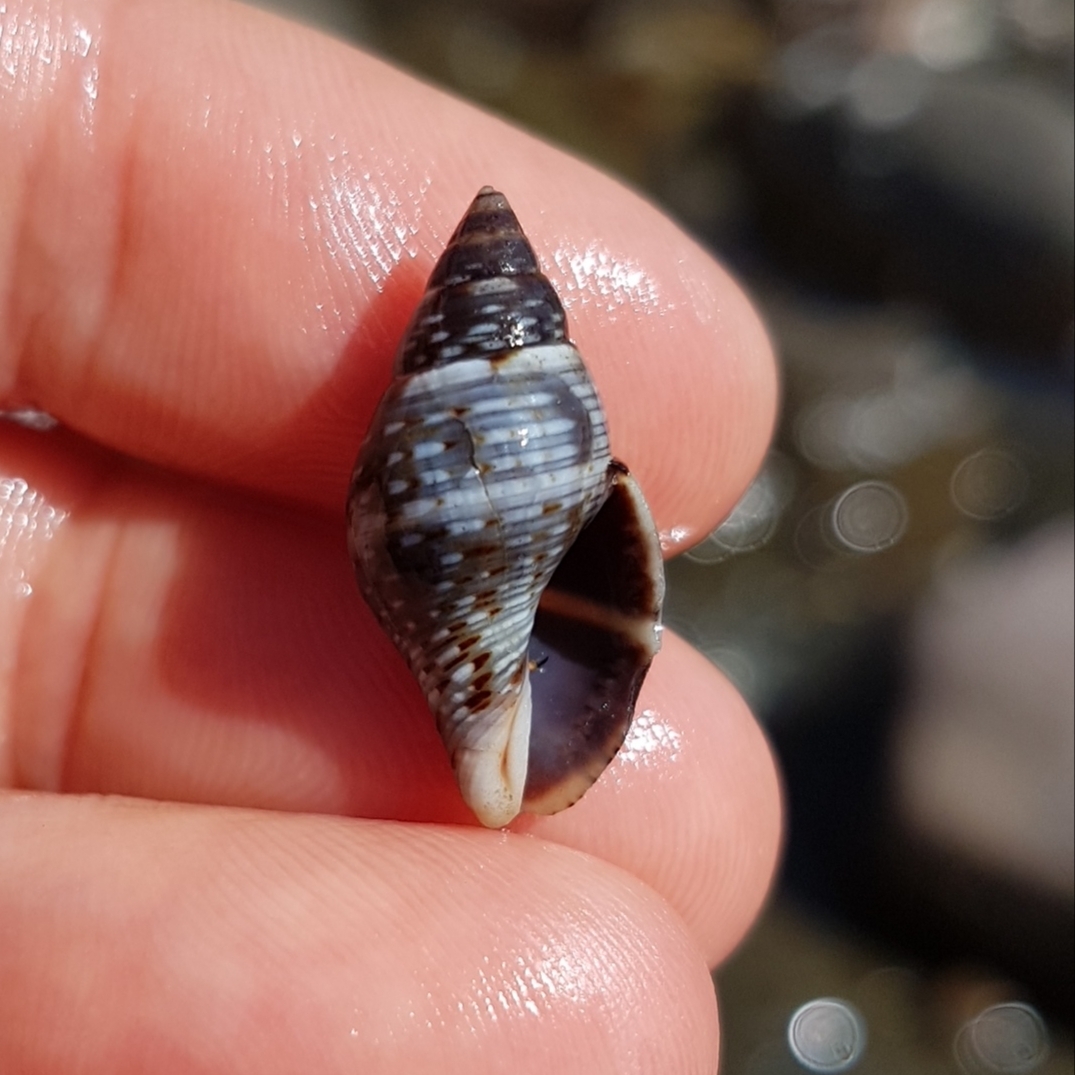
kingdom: Animalia
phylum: Mollusca
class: Gastropoda
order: Neogastropoda
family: Pisaniidae
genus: Pisania
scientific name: Pisania striata
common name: Spotted pisania
